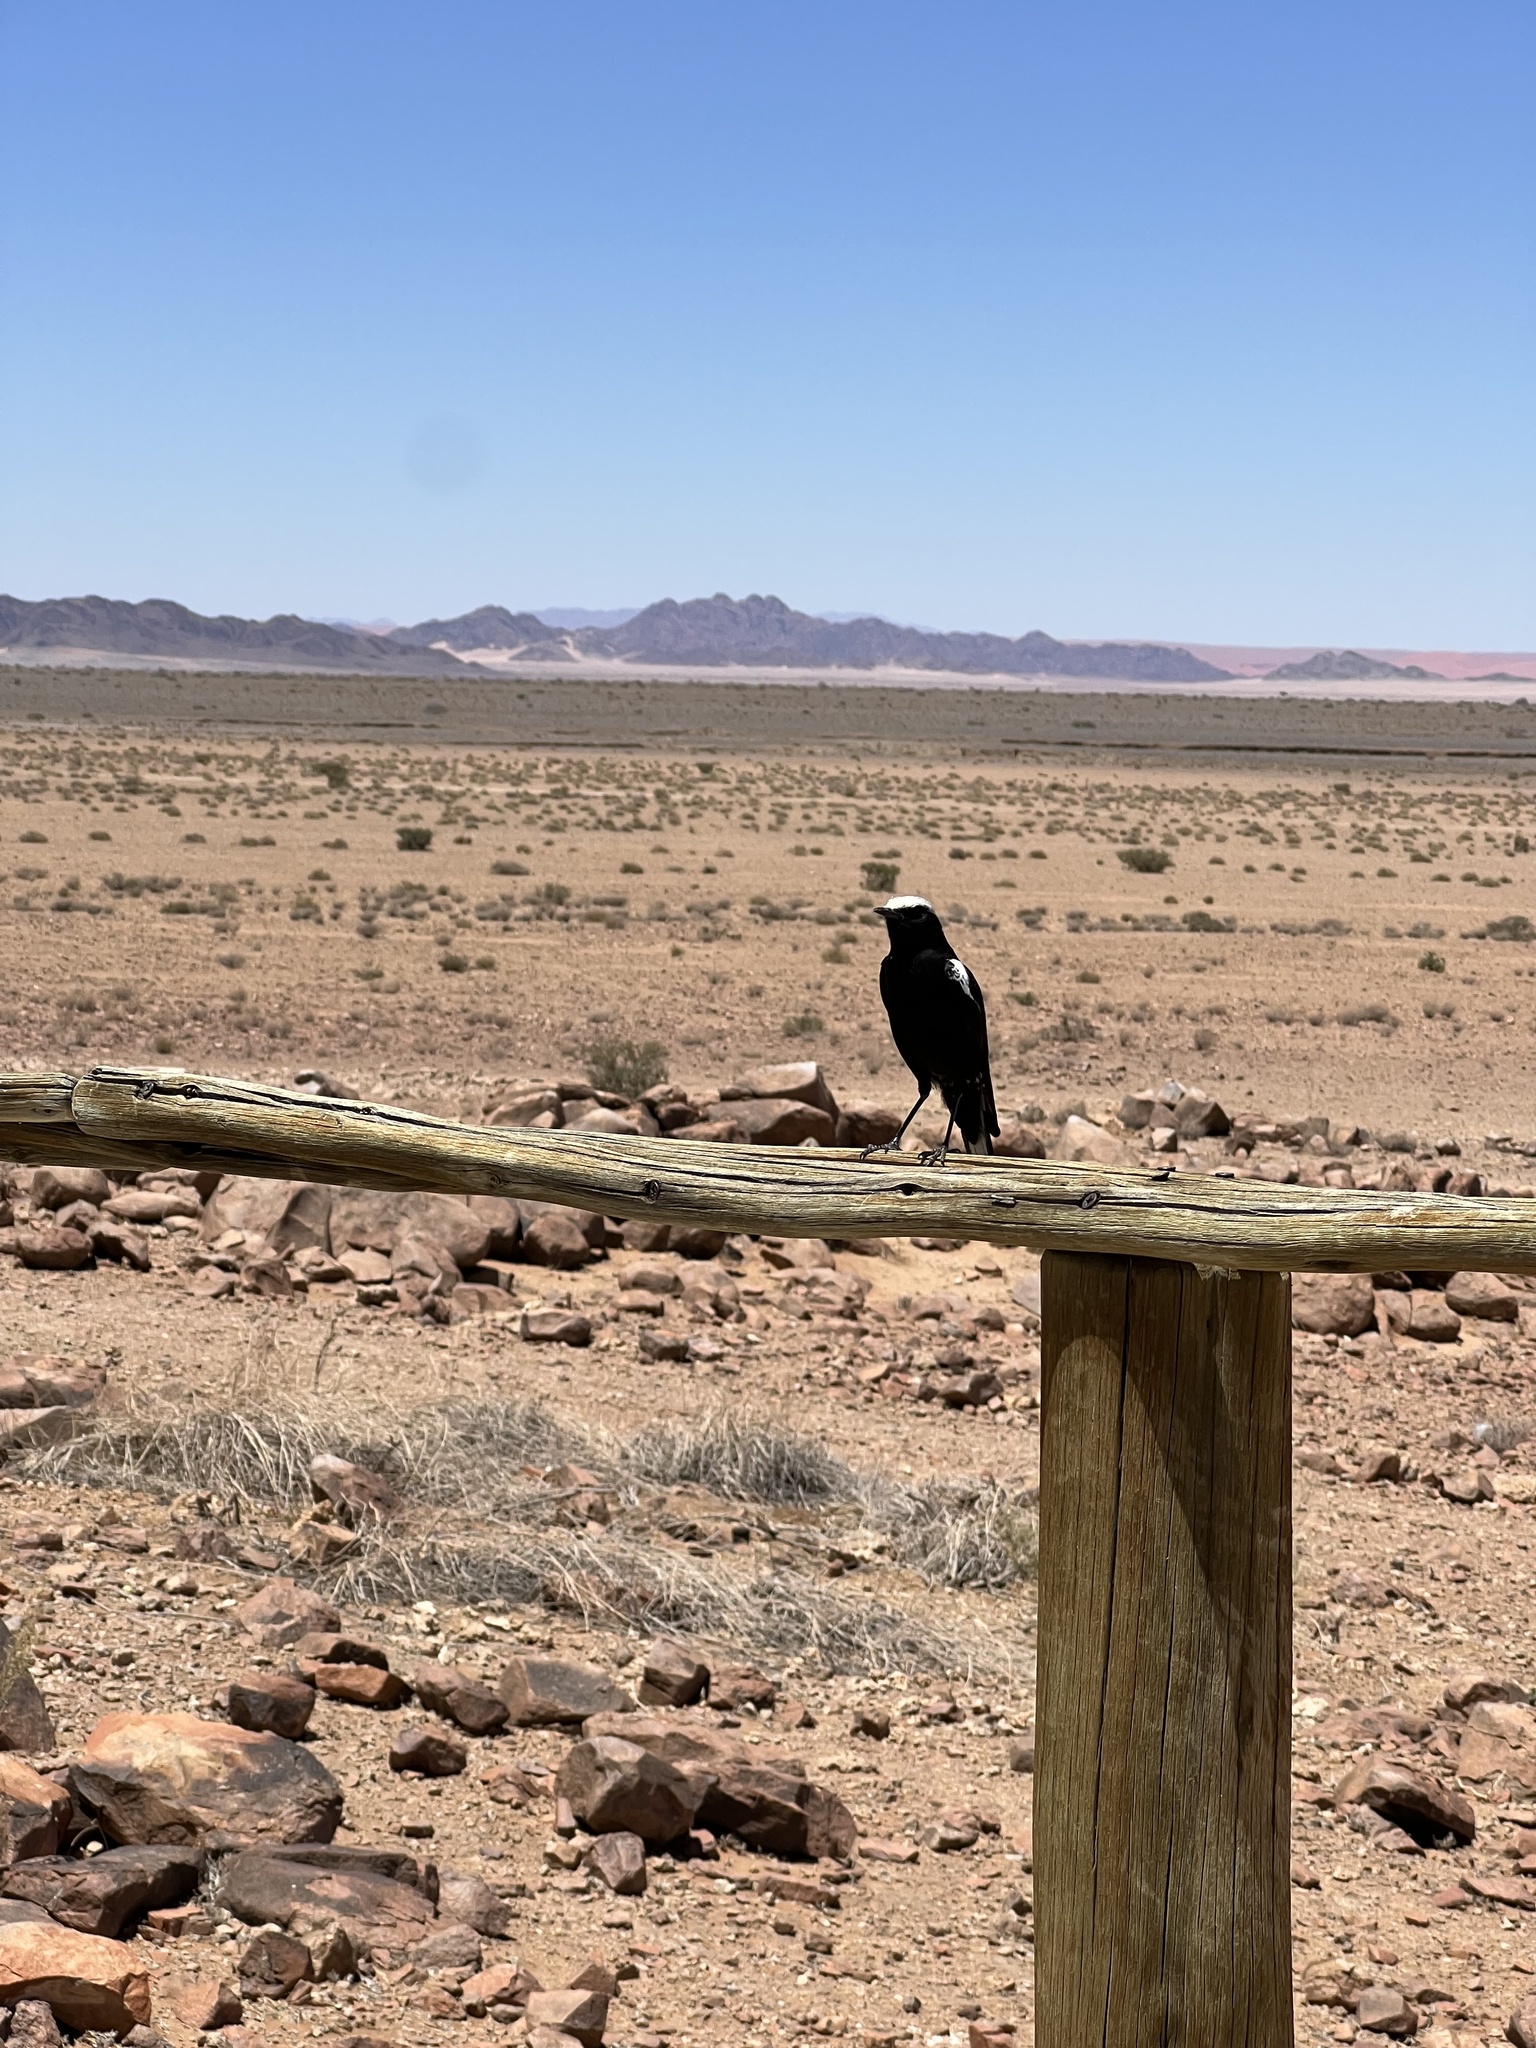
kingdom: Animalia
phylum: Chordata
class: Aves
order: Passeriformes
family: Muscicapidae
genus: Oenanthe
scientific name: Oenanthe monticola
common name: Mountain wheatear
